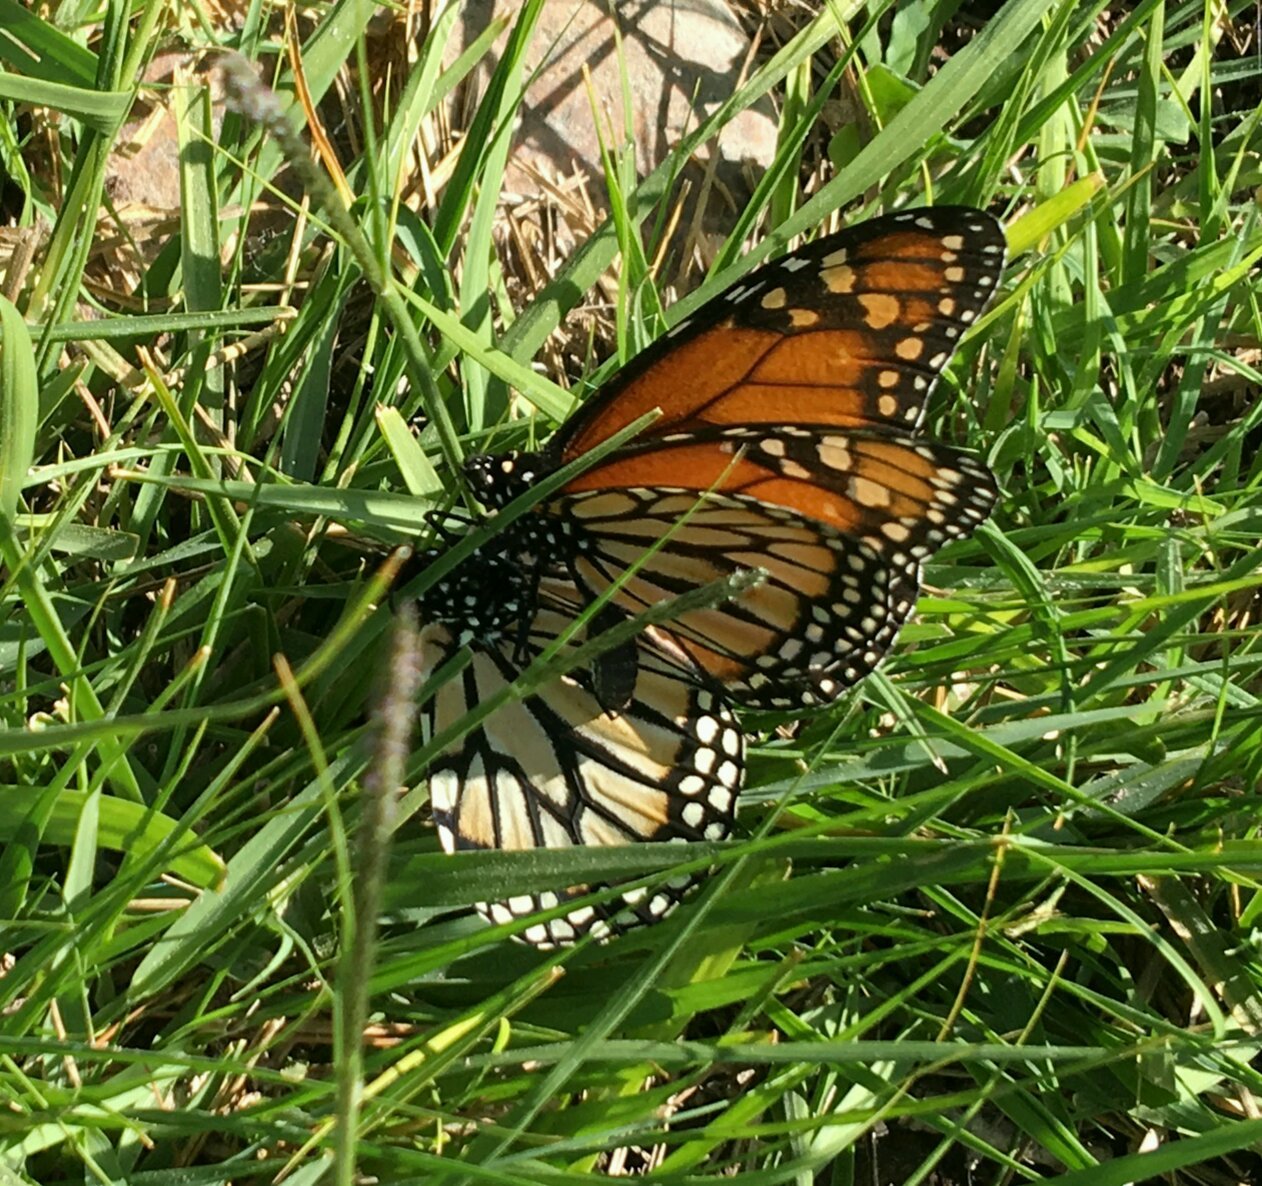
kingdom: Animalia
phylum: Arthropoda
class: Insecta
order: Lepidoptera
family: Nymphalidae
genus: Danaus
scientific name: Danaus erippus
